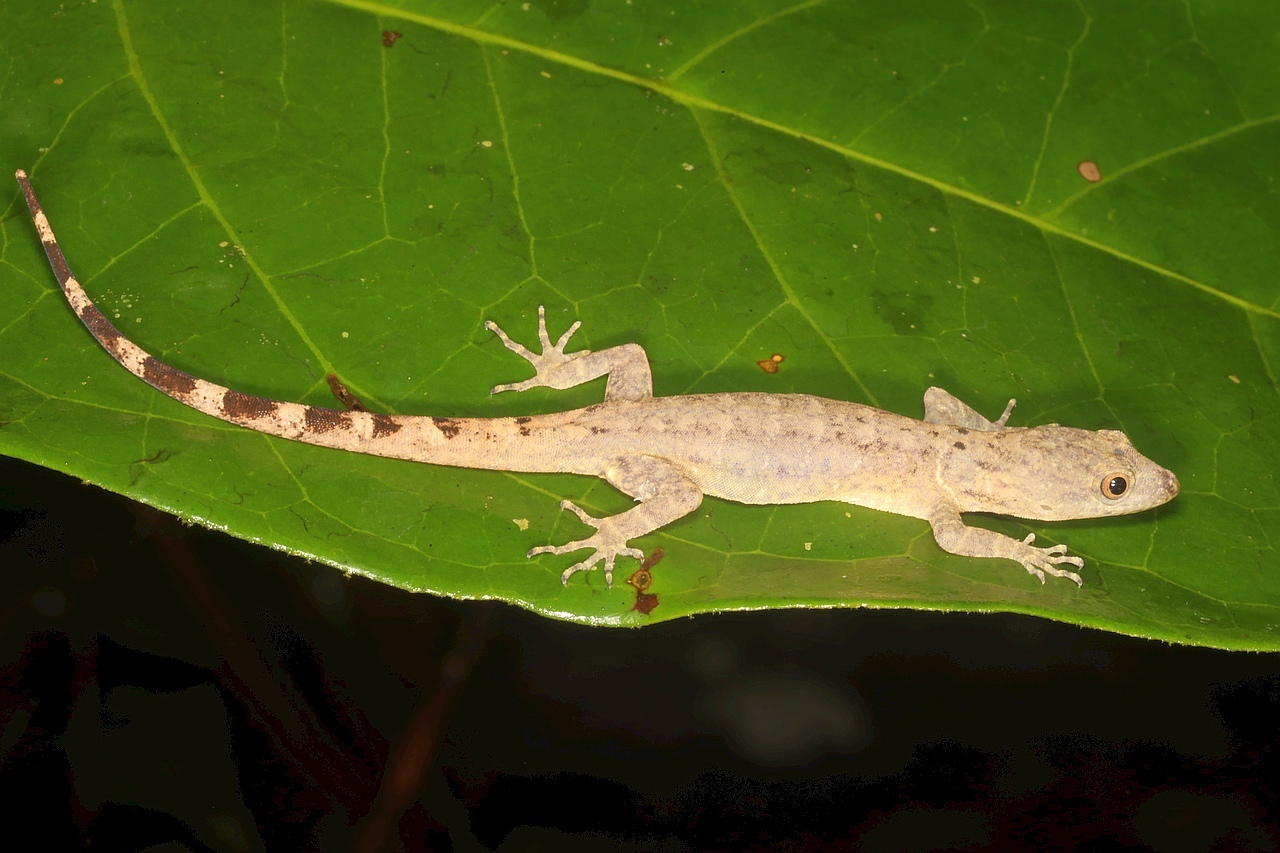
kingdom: Animalia
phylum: Chordata
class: Squamata
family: Sphaerodactylidae
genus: Gonatodes
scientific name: Gonatodes humeralis
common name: South american clawed gecko
